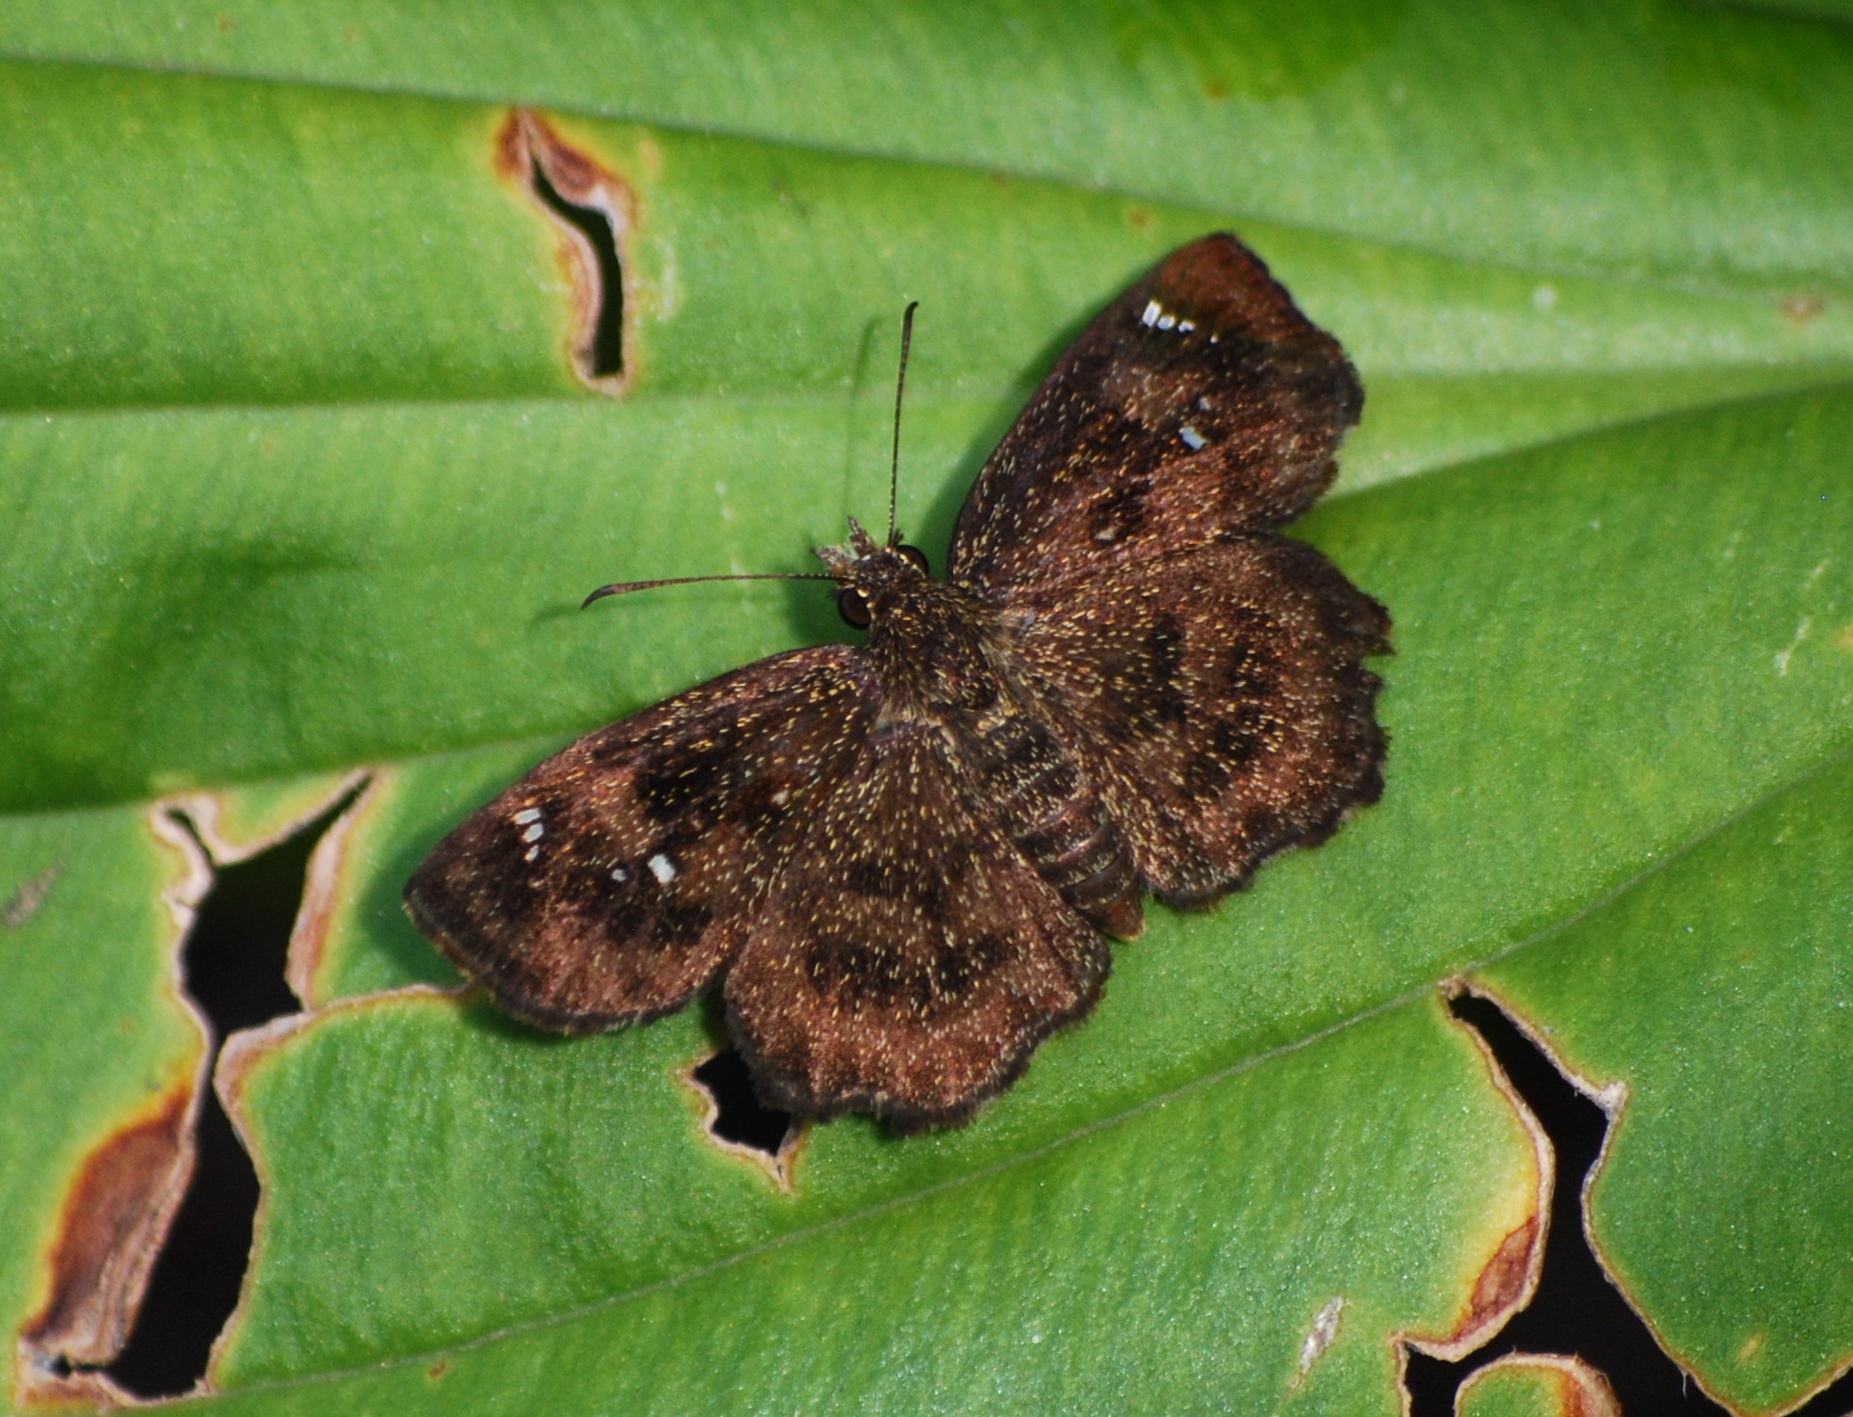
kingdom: Animalia
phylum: Arthropoda
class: Insecta
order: Lepidoptera
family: Hesperiidae
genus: Staphylus
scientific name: Staphylus mazans
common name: Mazans scallopwing
